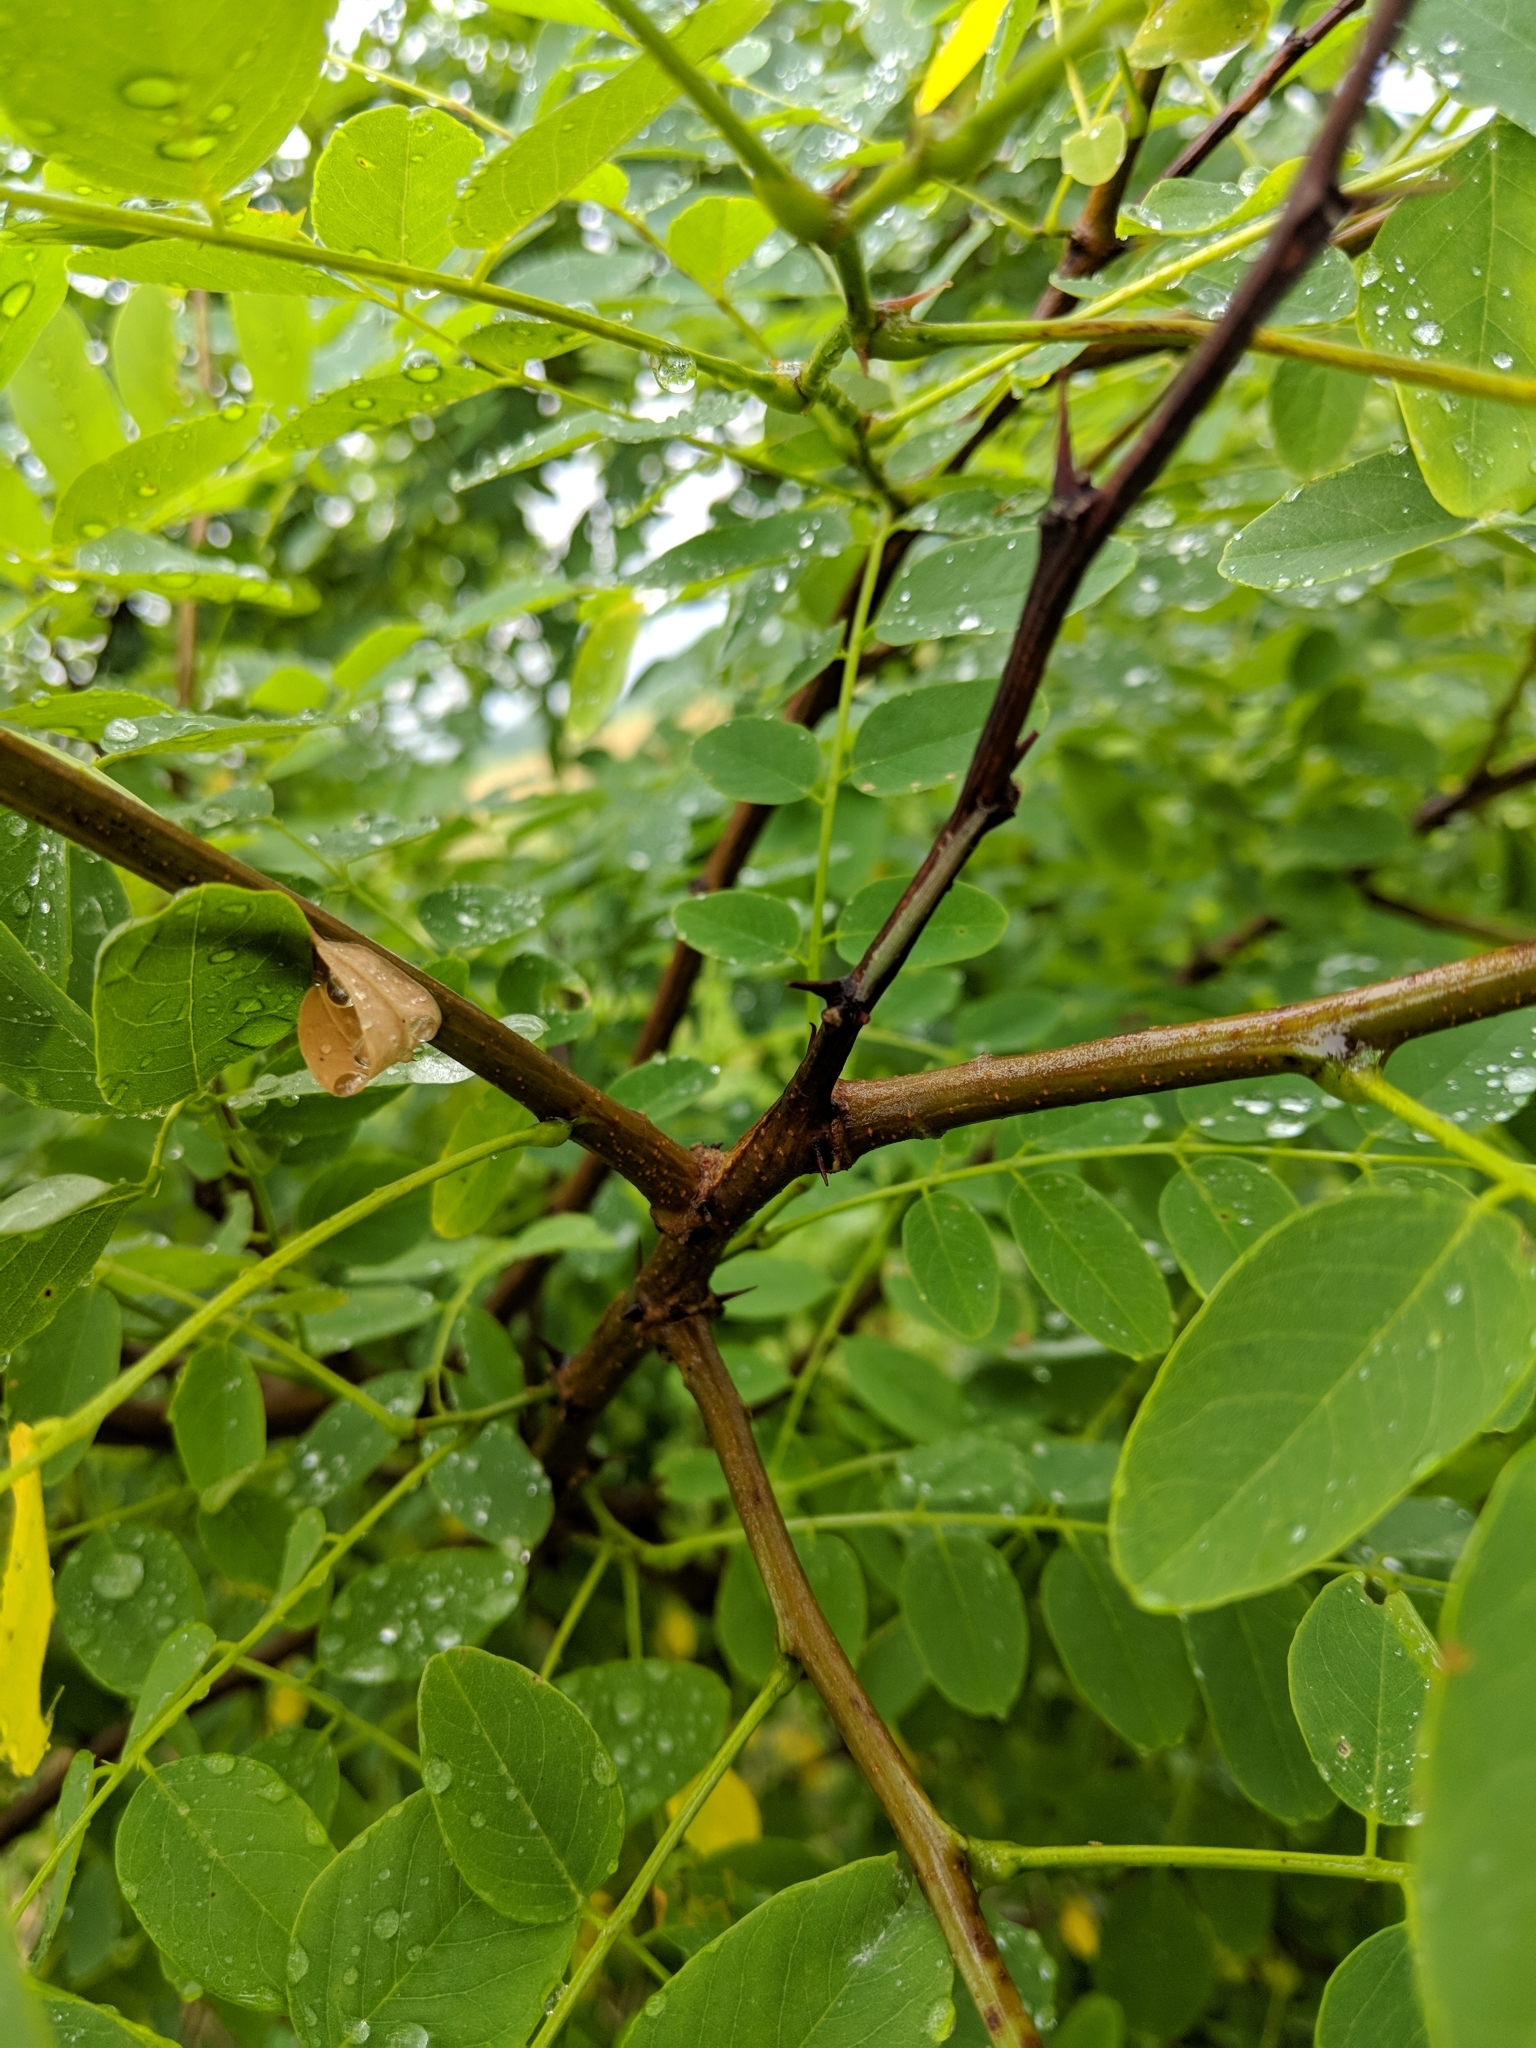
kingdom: Plantae
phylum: Tracheophyta
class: Magnoliopsida
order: Fabales
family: Fabaceae
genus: Robinia
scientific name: Robinia pseudoacacia
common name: Black locust
